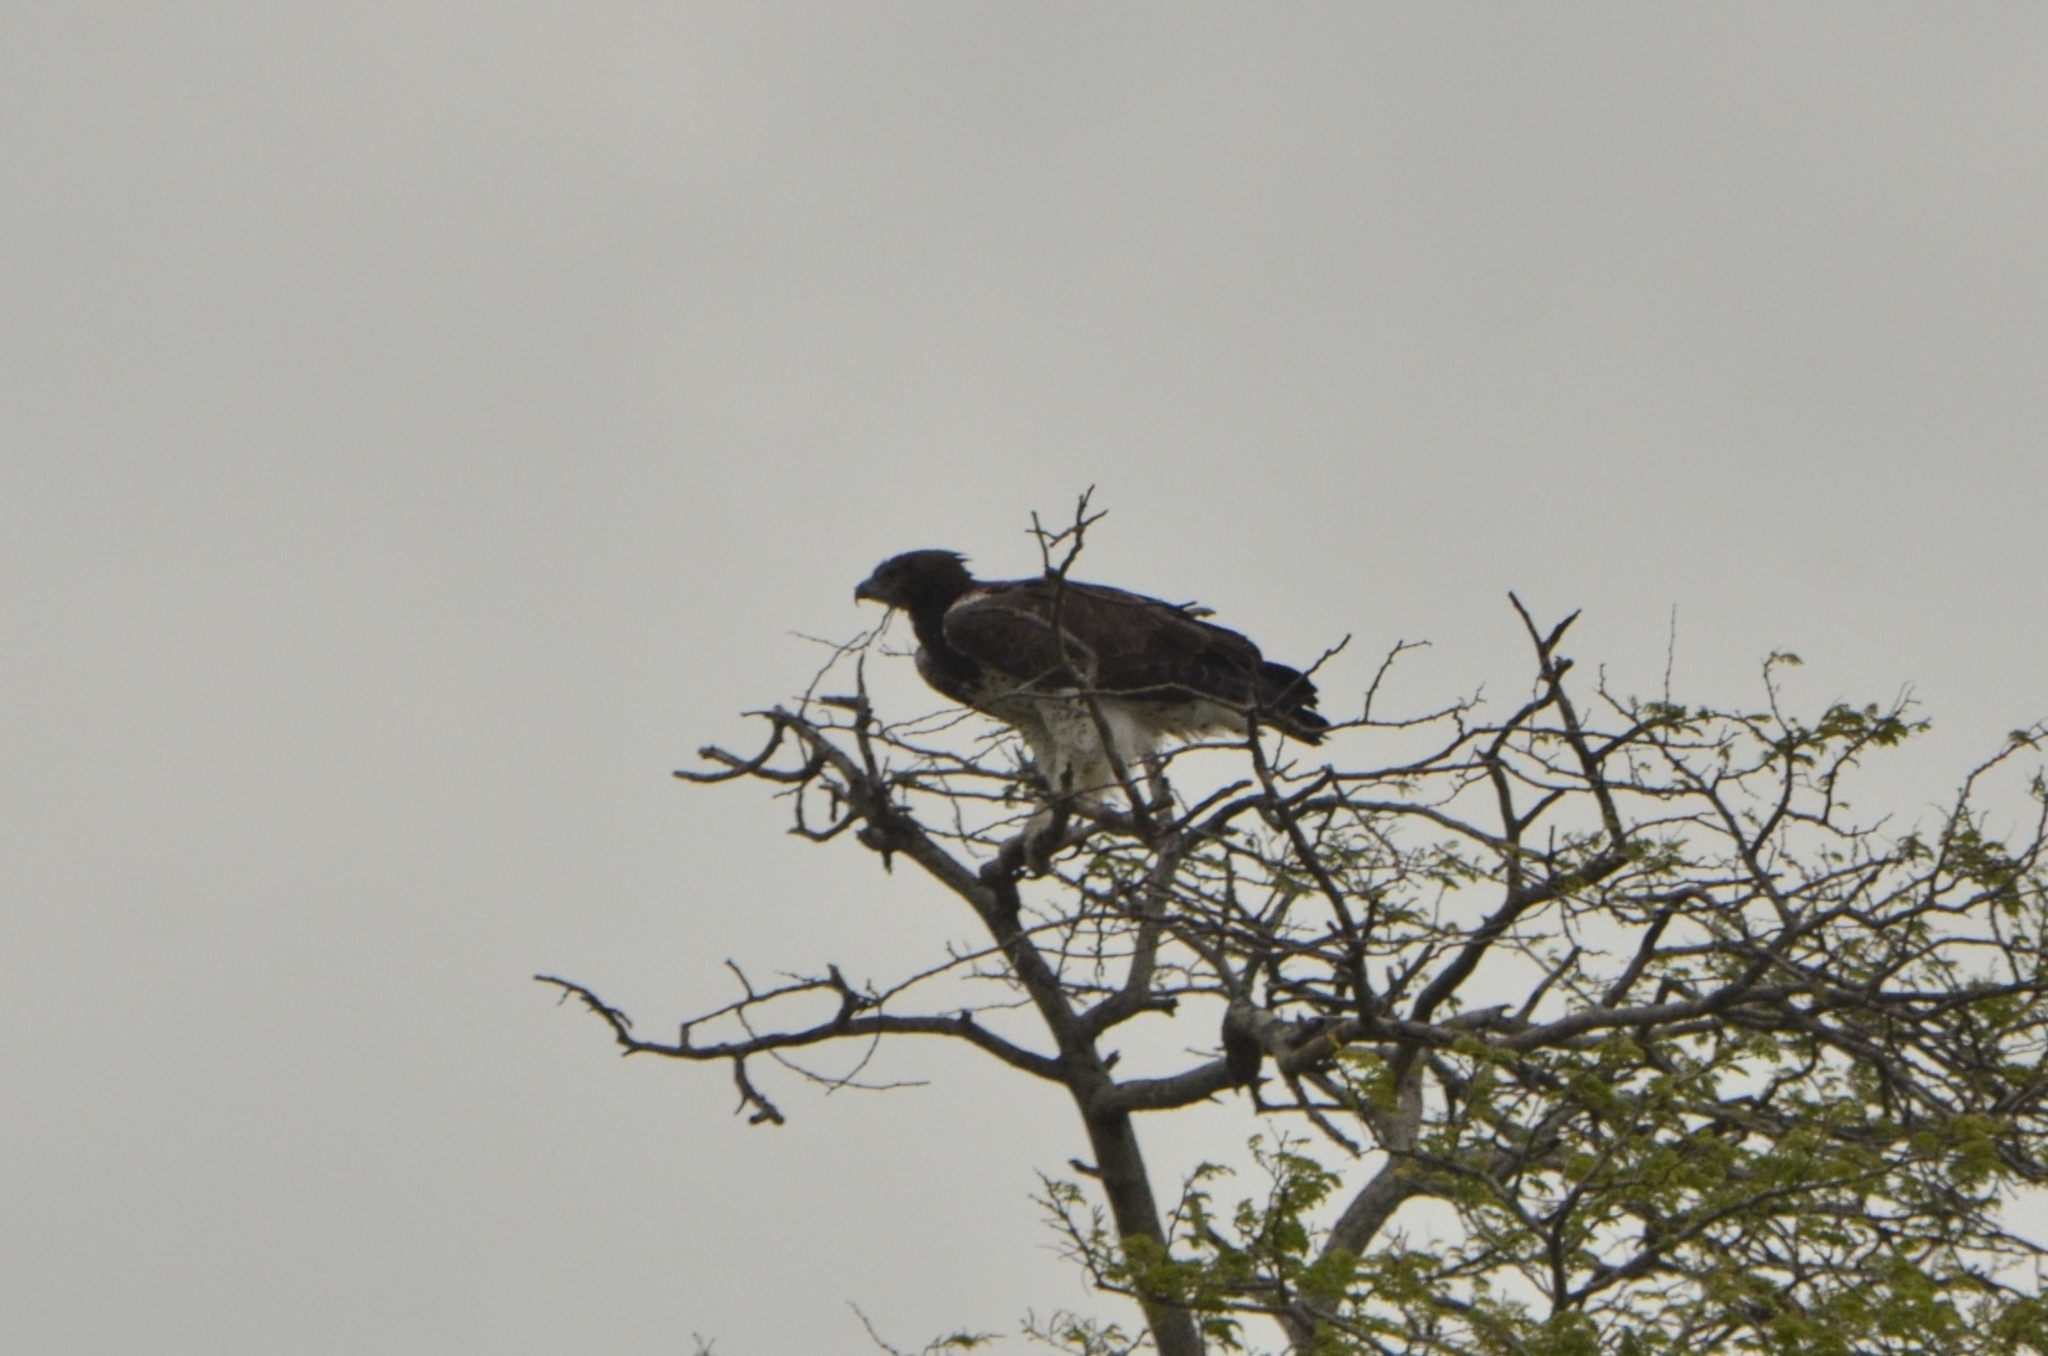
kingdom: Animalia
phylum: Chordata
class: Aves
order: Accipitriformes
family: Accipitridae
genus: Polemaetus
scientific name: Polemaetus bellicosus
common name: Martial eagle
